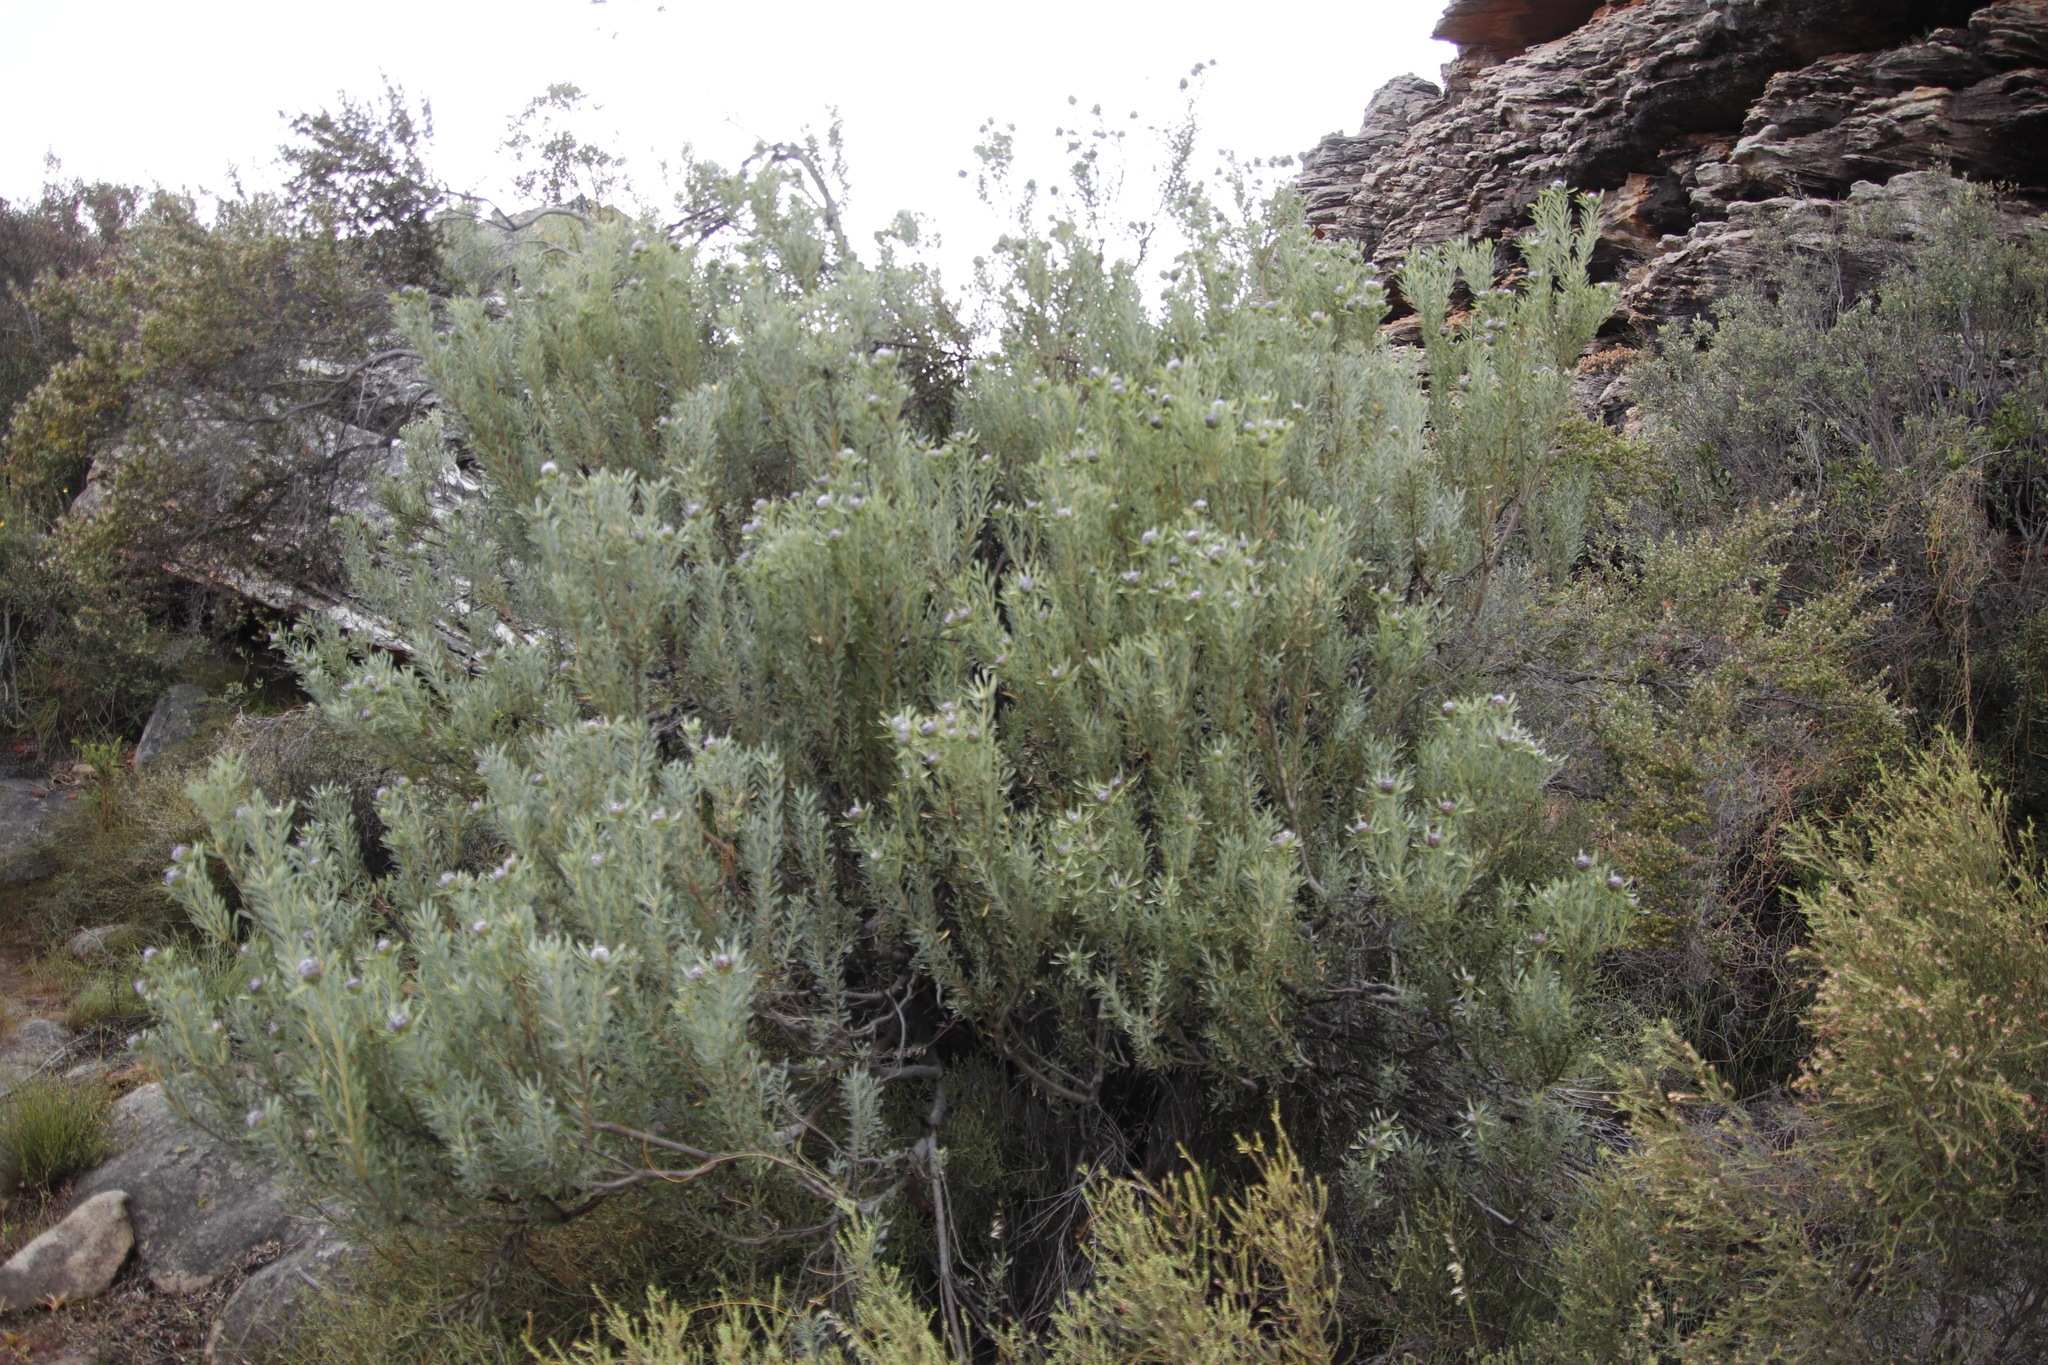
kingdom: Plantae
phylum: Tracheophyta
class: Magnoliopsida
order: Proteales
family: Proteaceae
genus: Leucadendron
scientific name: Leucadendron pubescens
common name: Grey conebush
